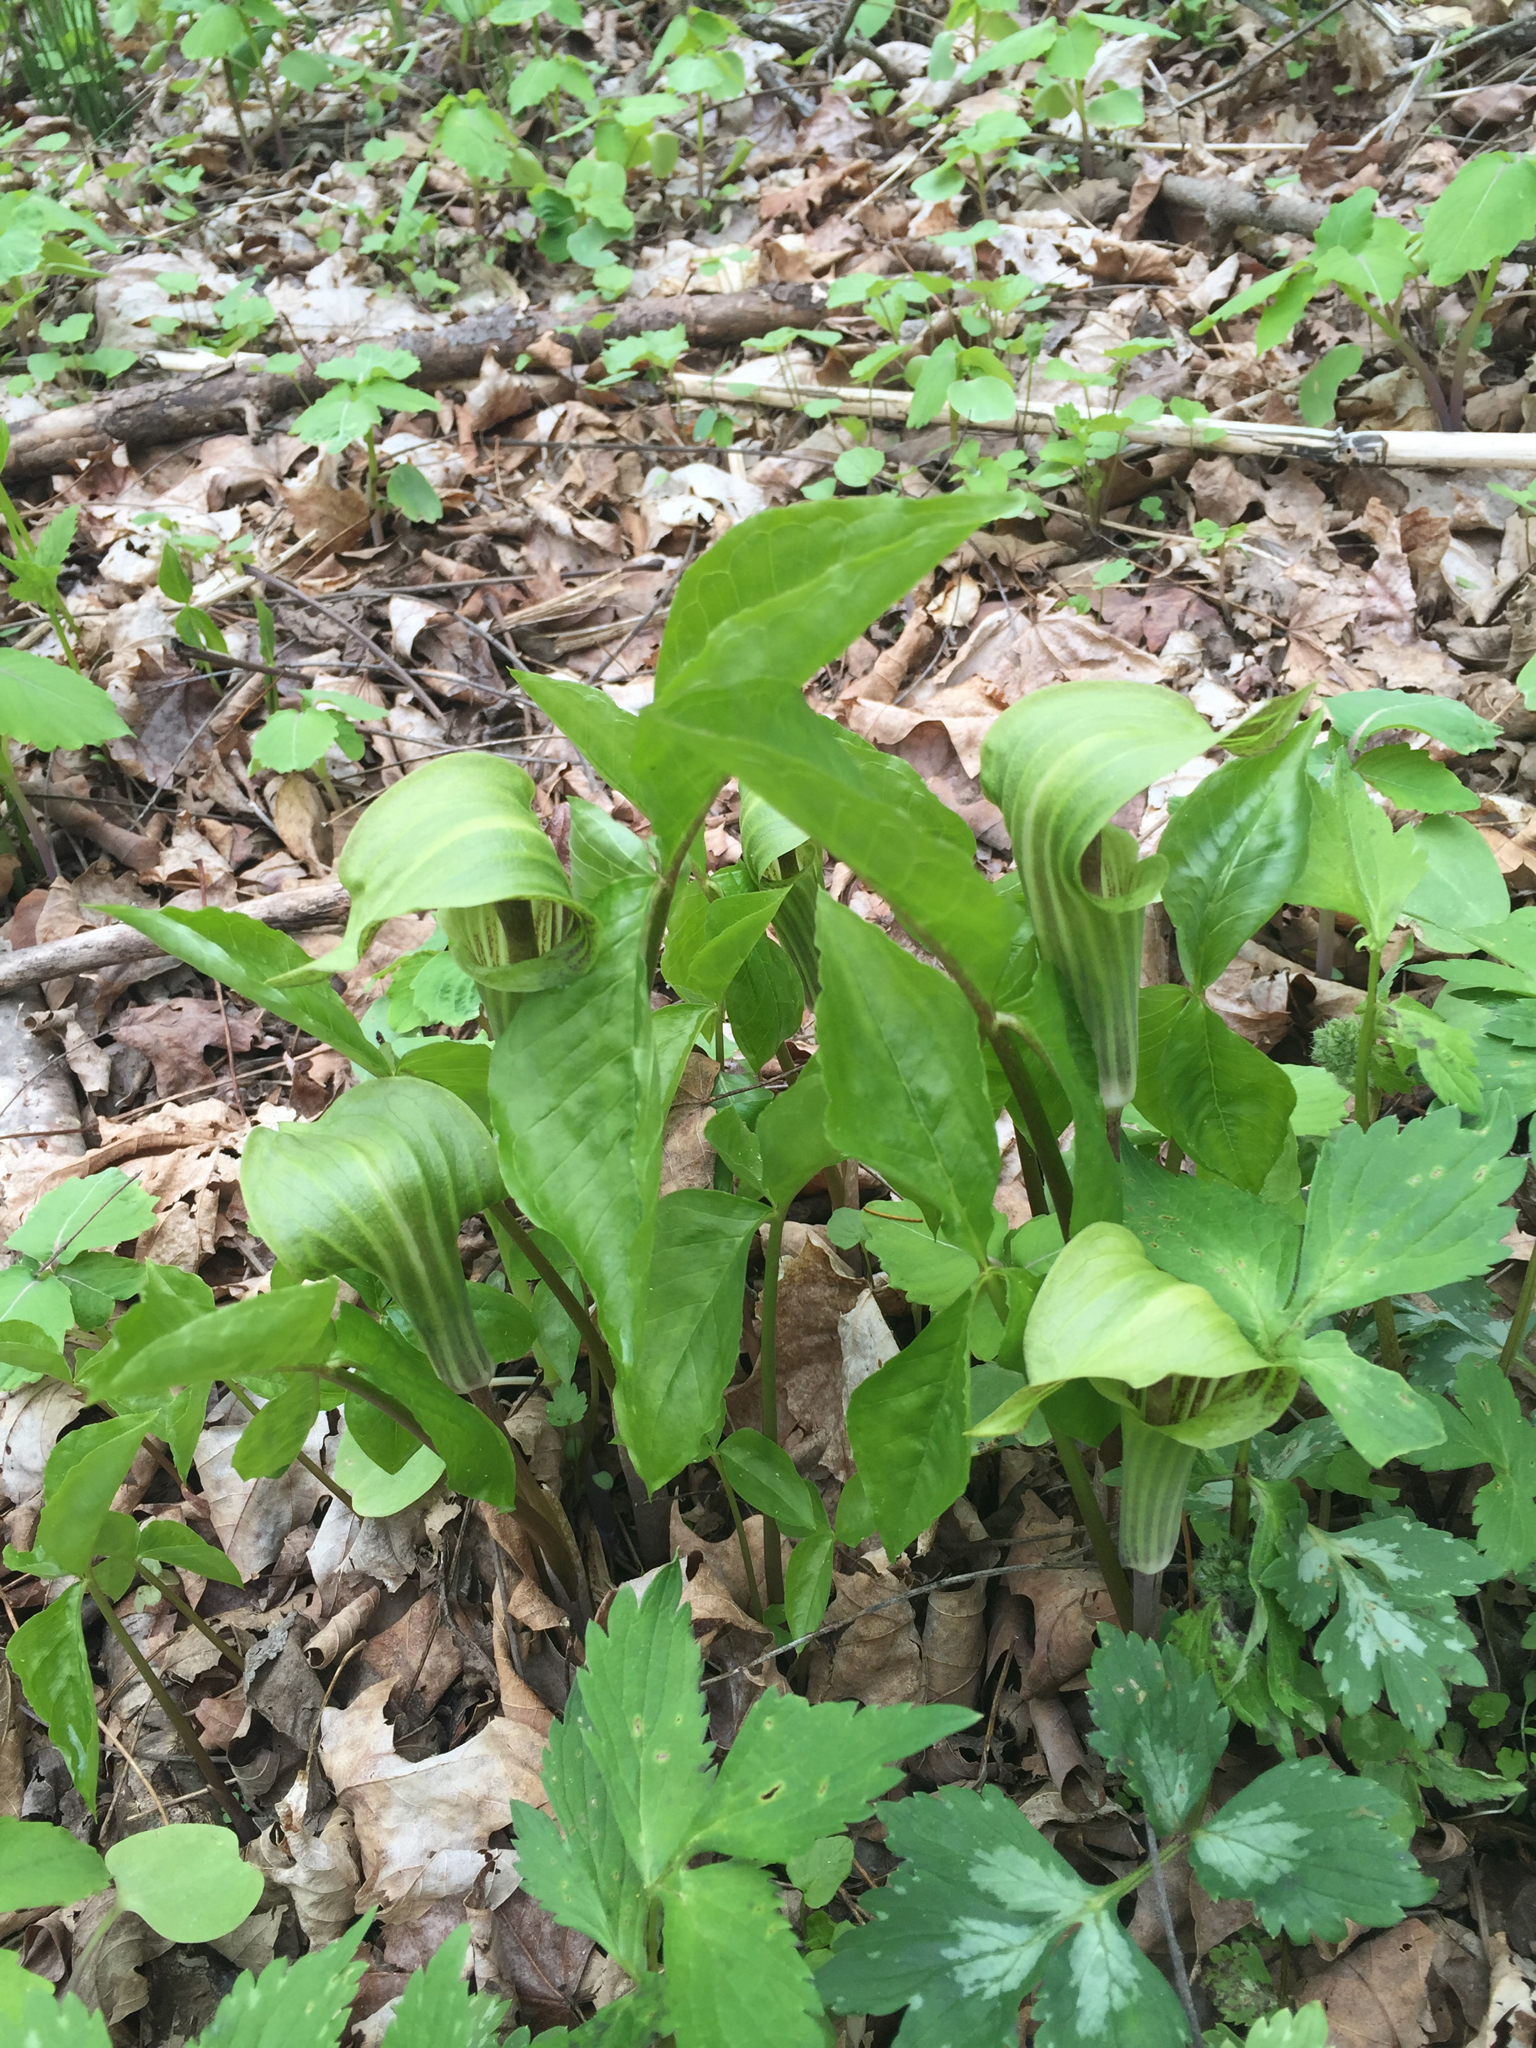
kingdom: Plantae
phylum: Tracheophyta
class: Liliopsida
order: Alismatales
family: Araceae
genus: Arisaema
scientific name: Arisaema triphyllum
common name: Jack-in-the-pulpit
